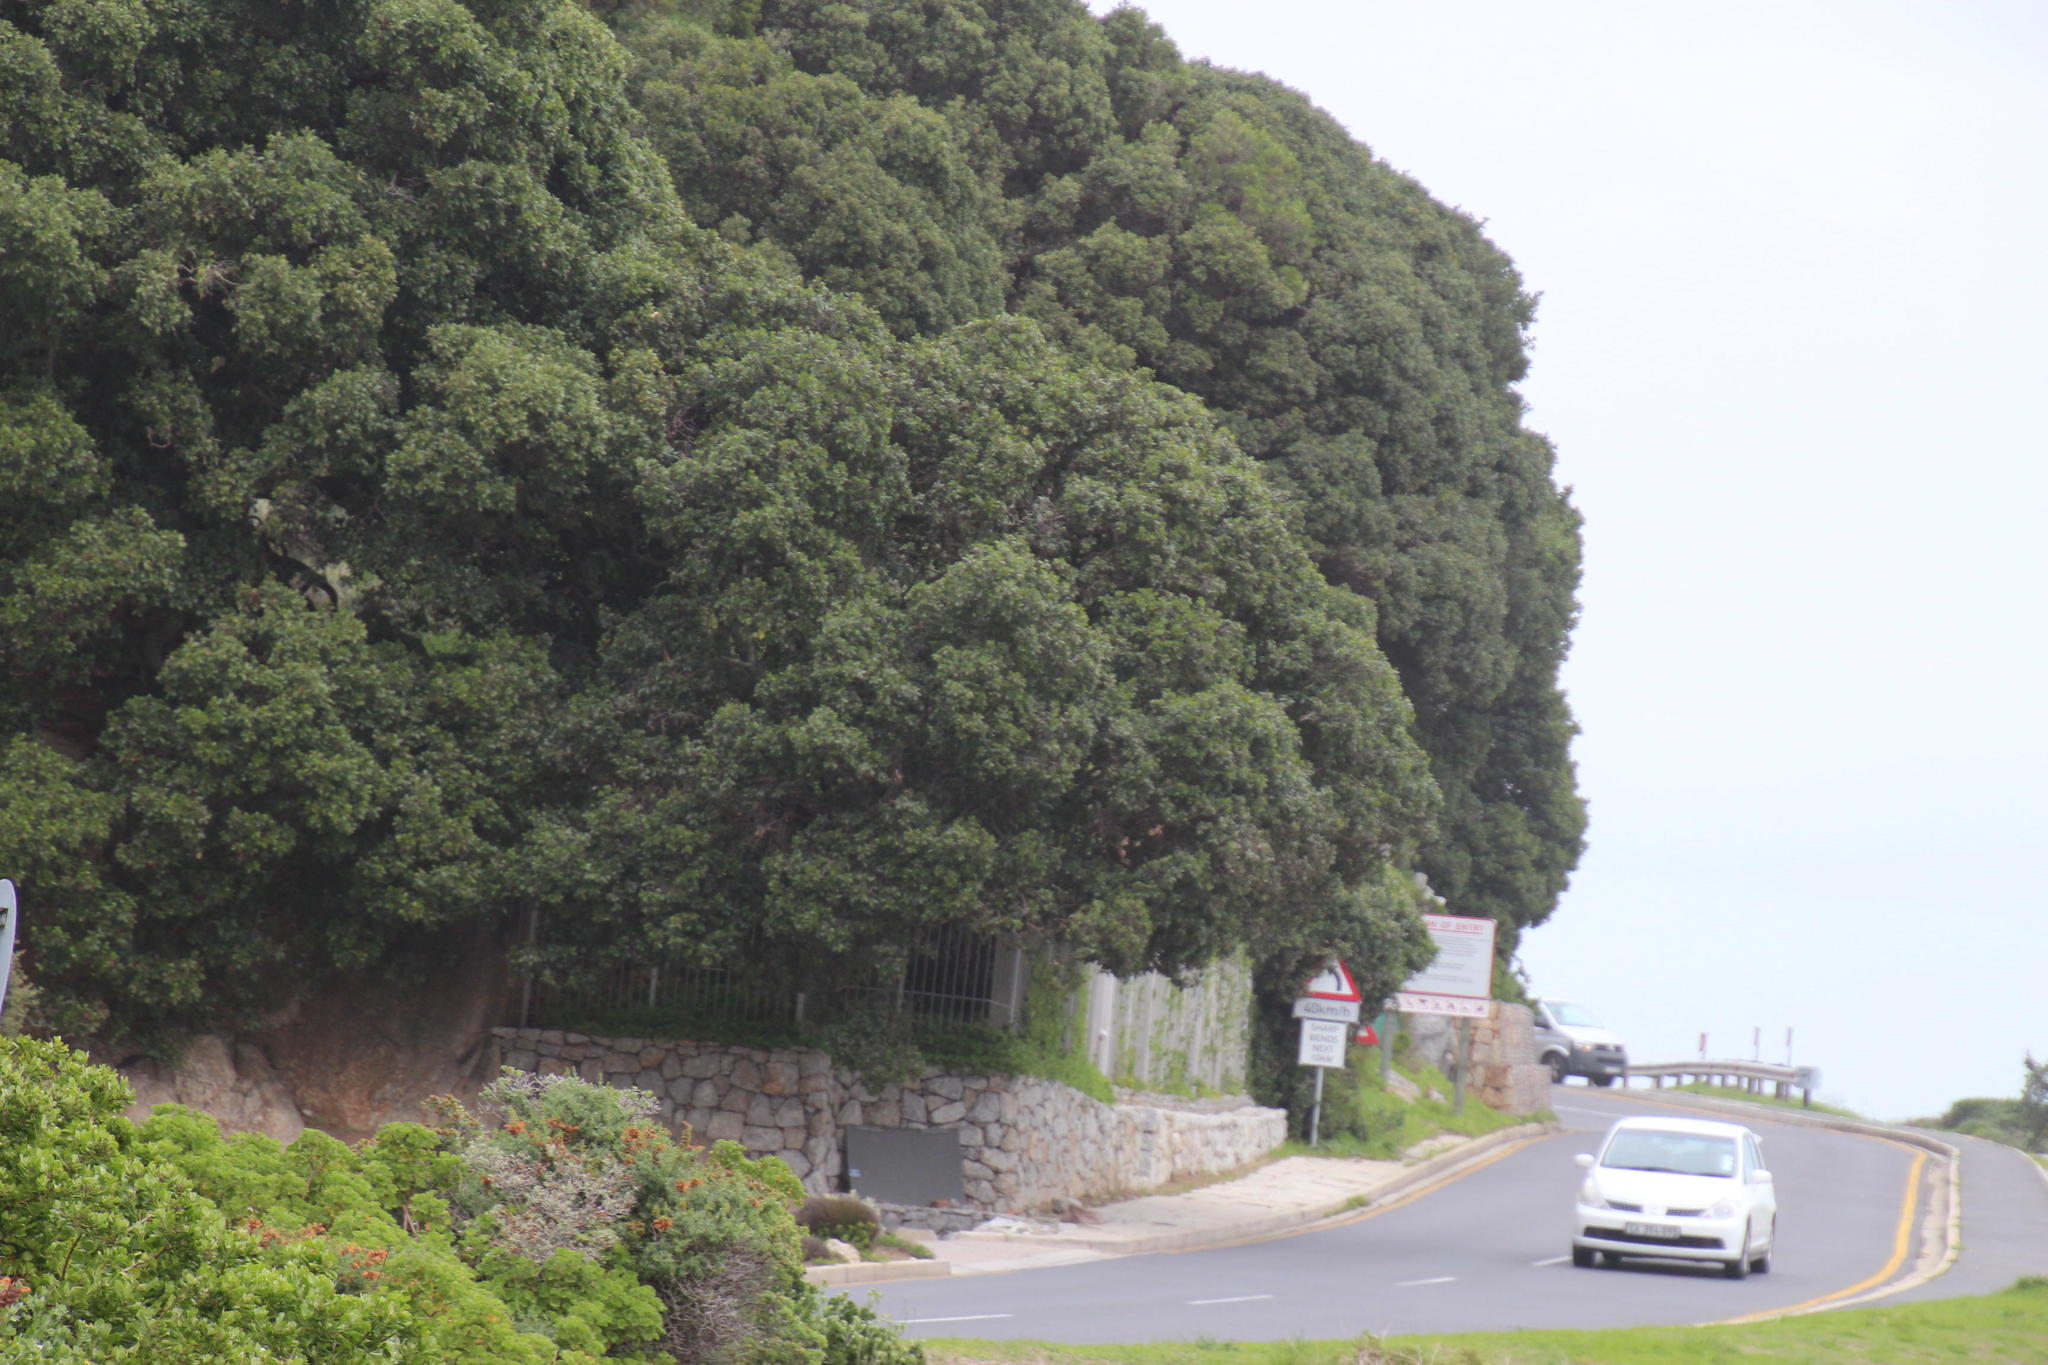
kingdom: Plantae
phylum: Tracheophyta
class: Magnoliopsida
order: Ericales
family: Sapotaceae
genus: Sideroxylon
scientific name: Sideroxylon inerme
